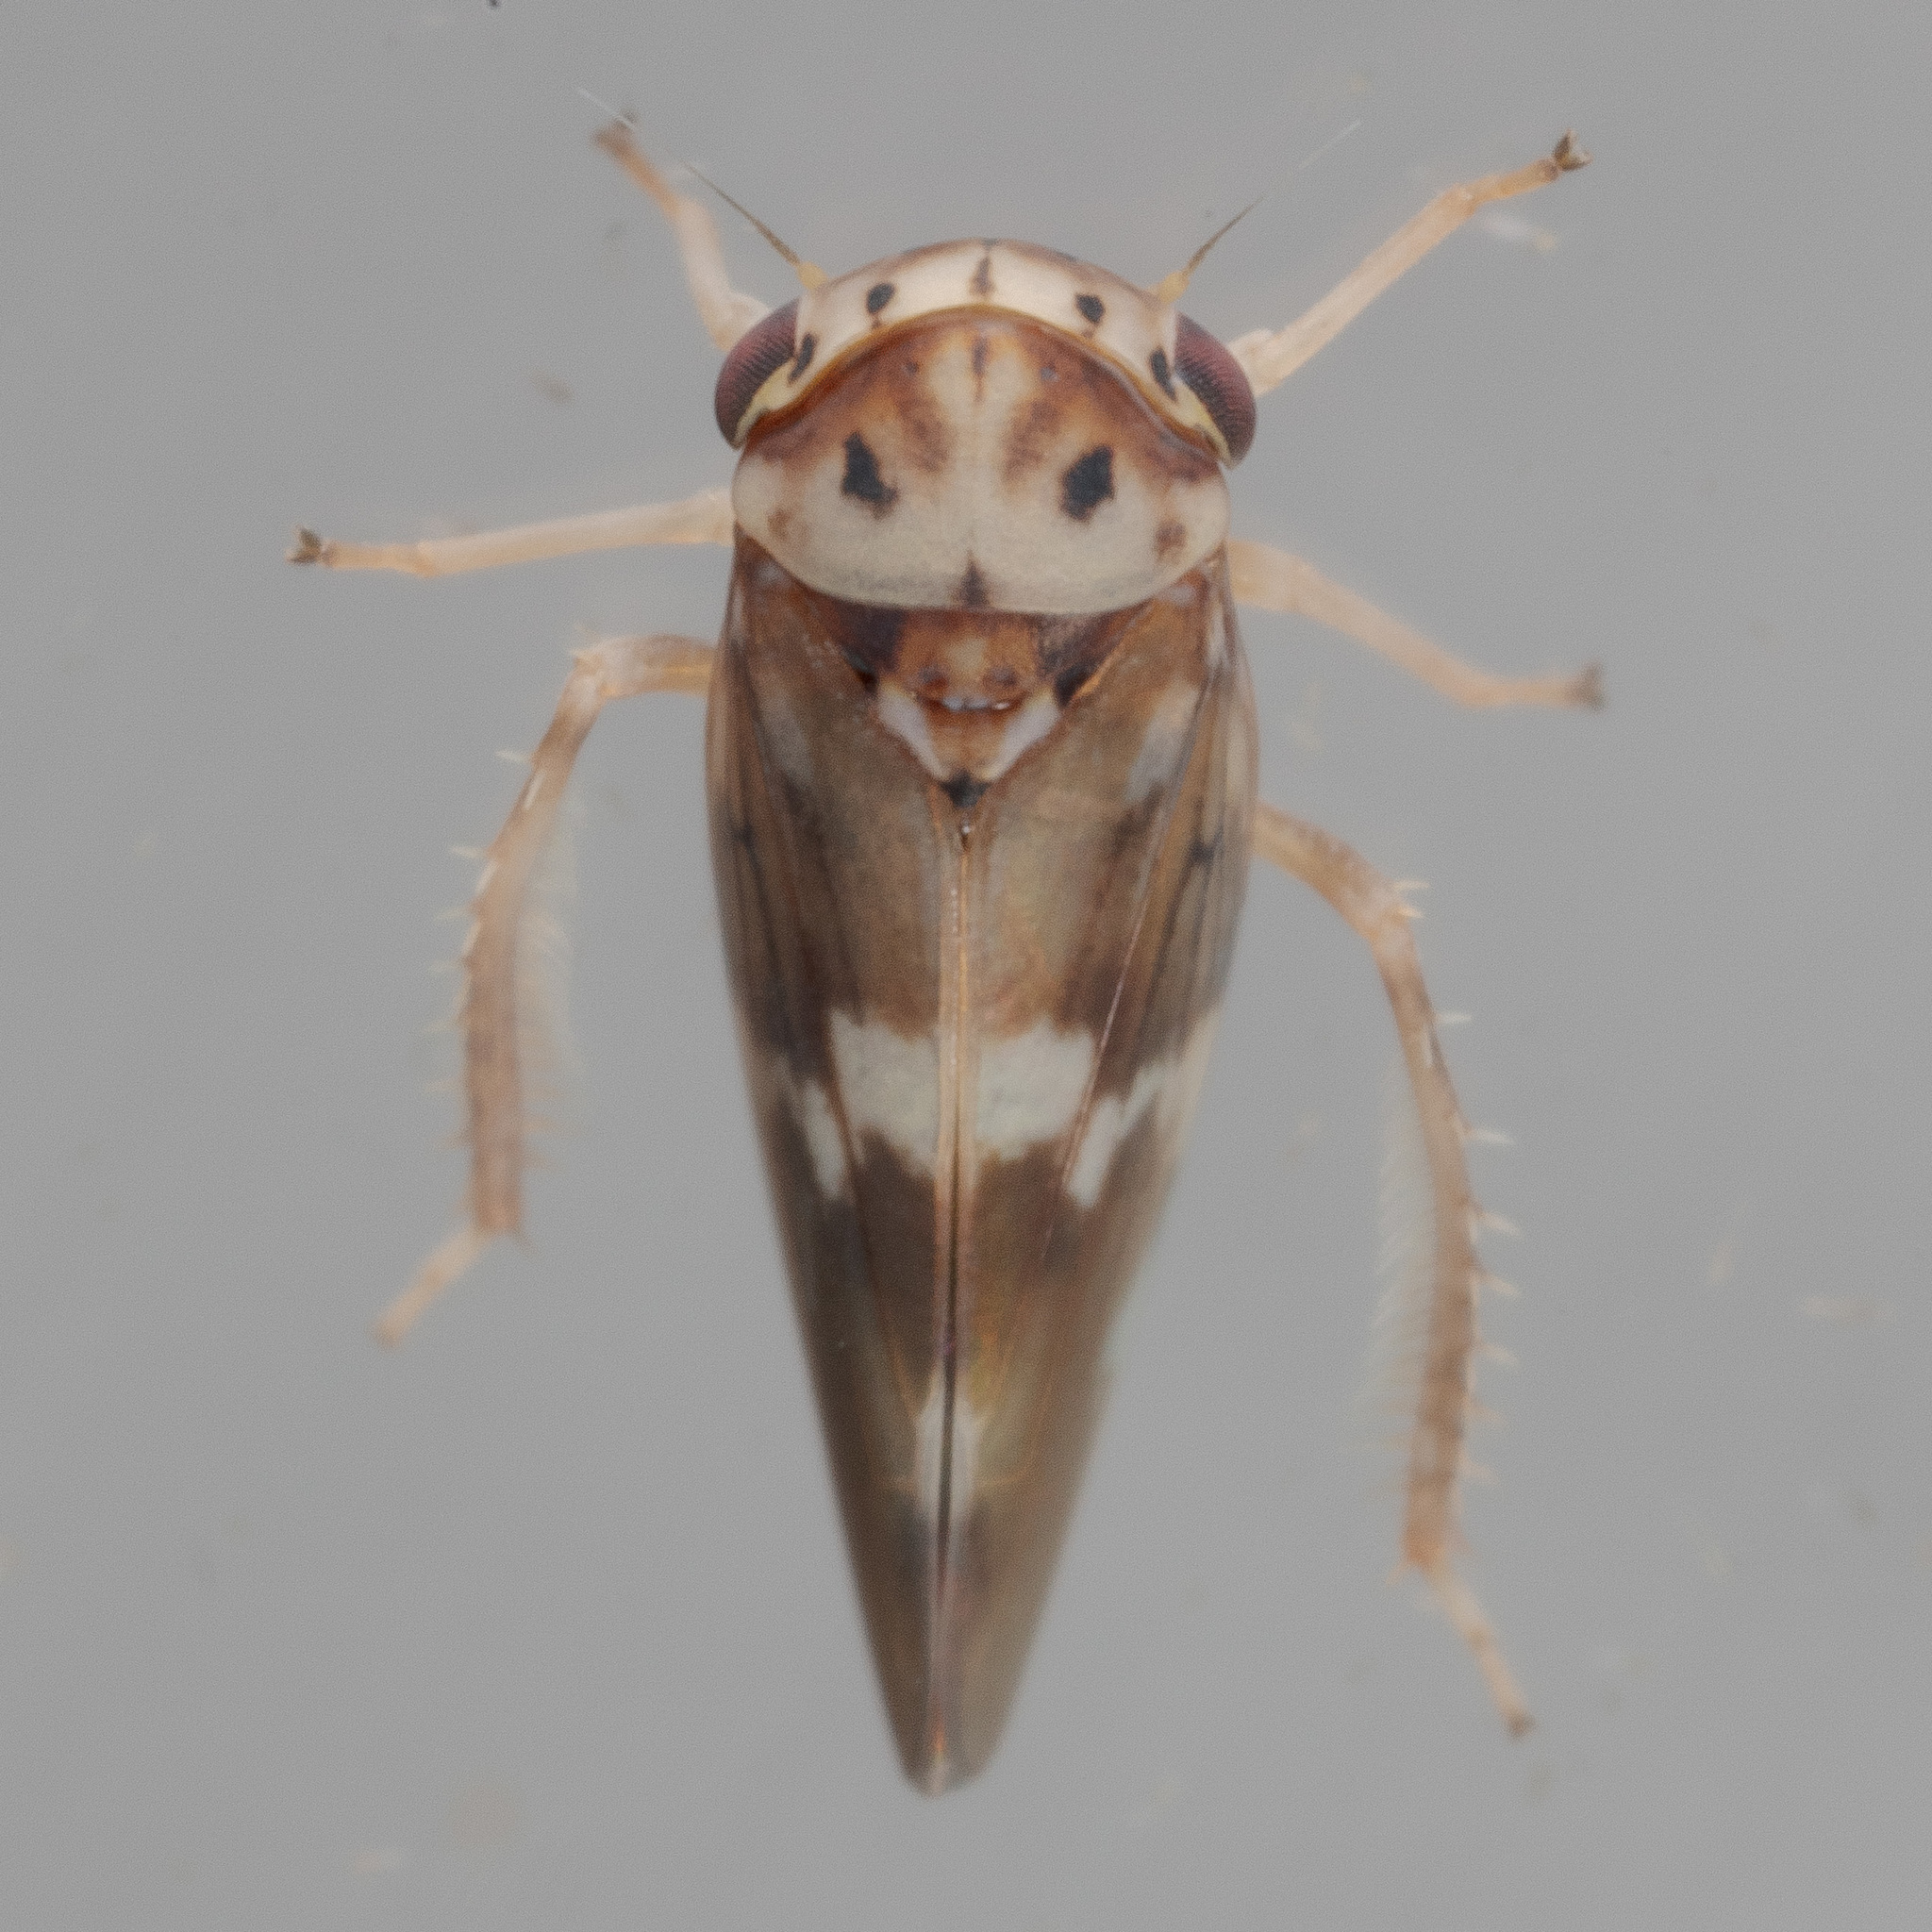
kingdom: Animalia
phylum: Arthropoda
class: Insecta
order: Hemiptera
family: Cicadellidae
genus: Agalliopsis
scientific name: Agalliopsis cervina
